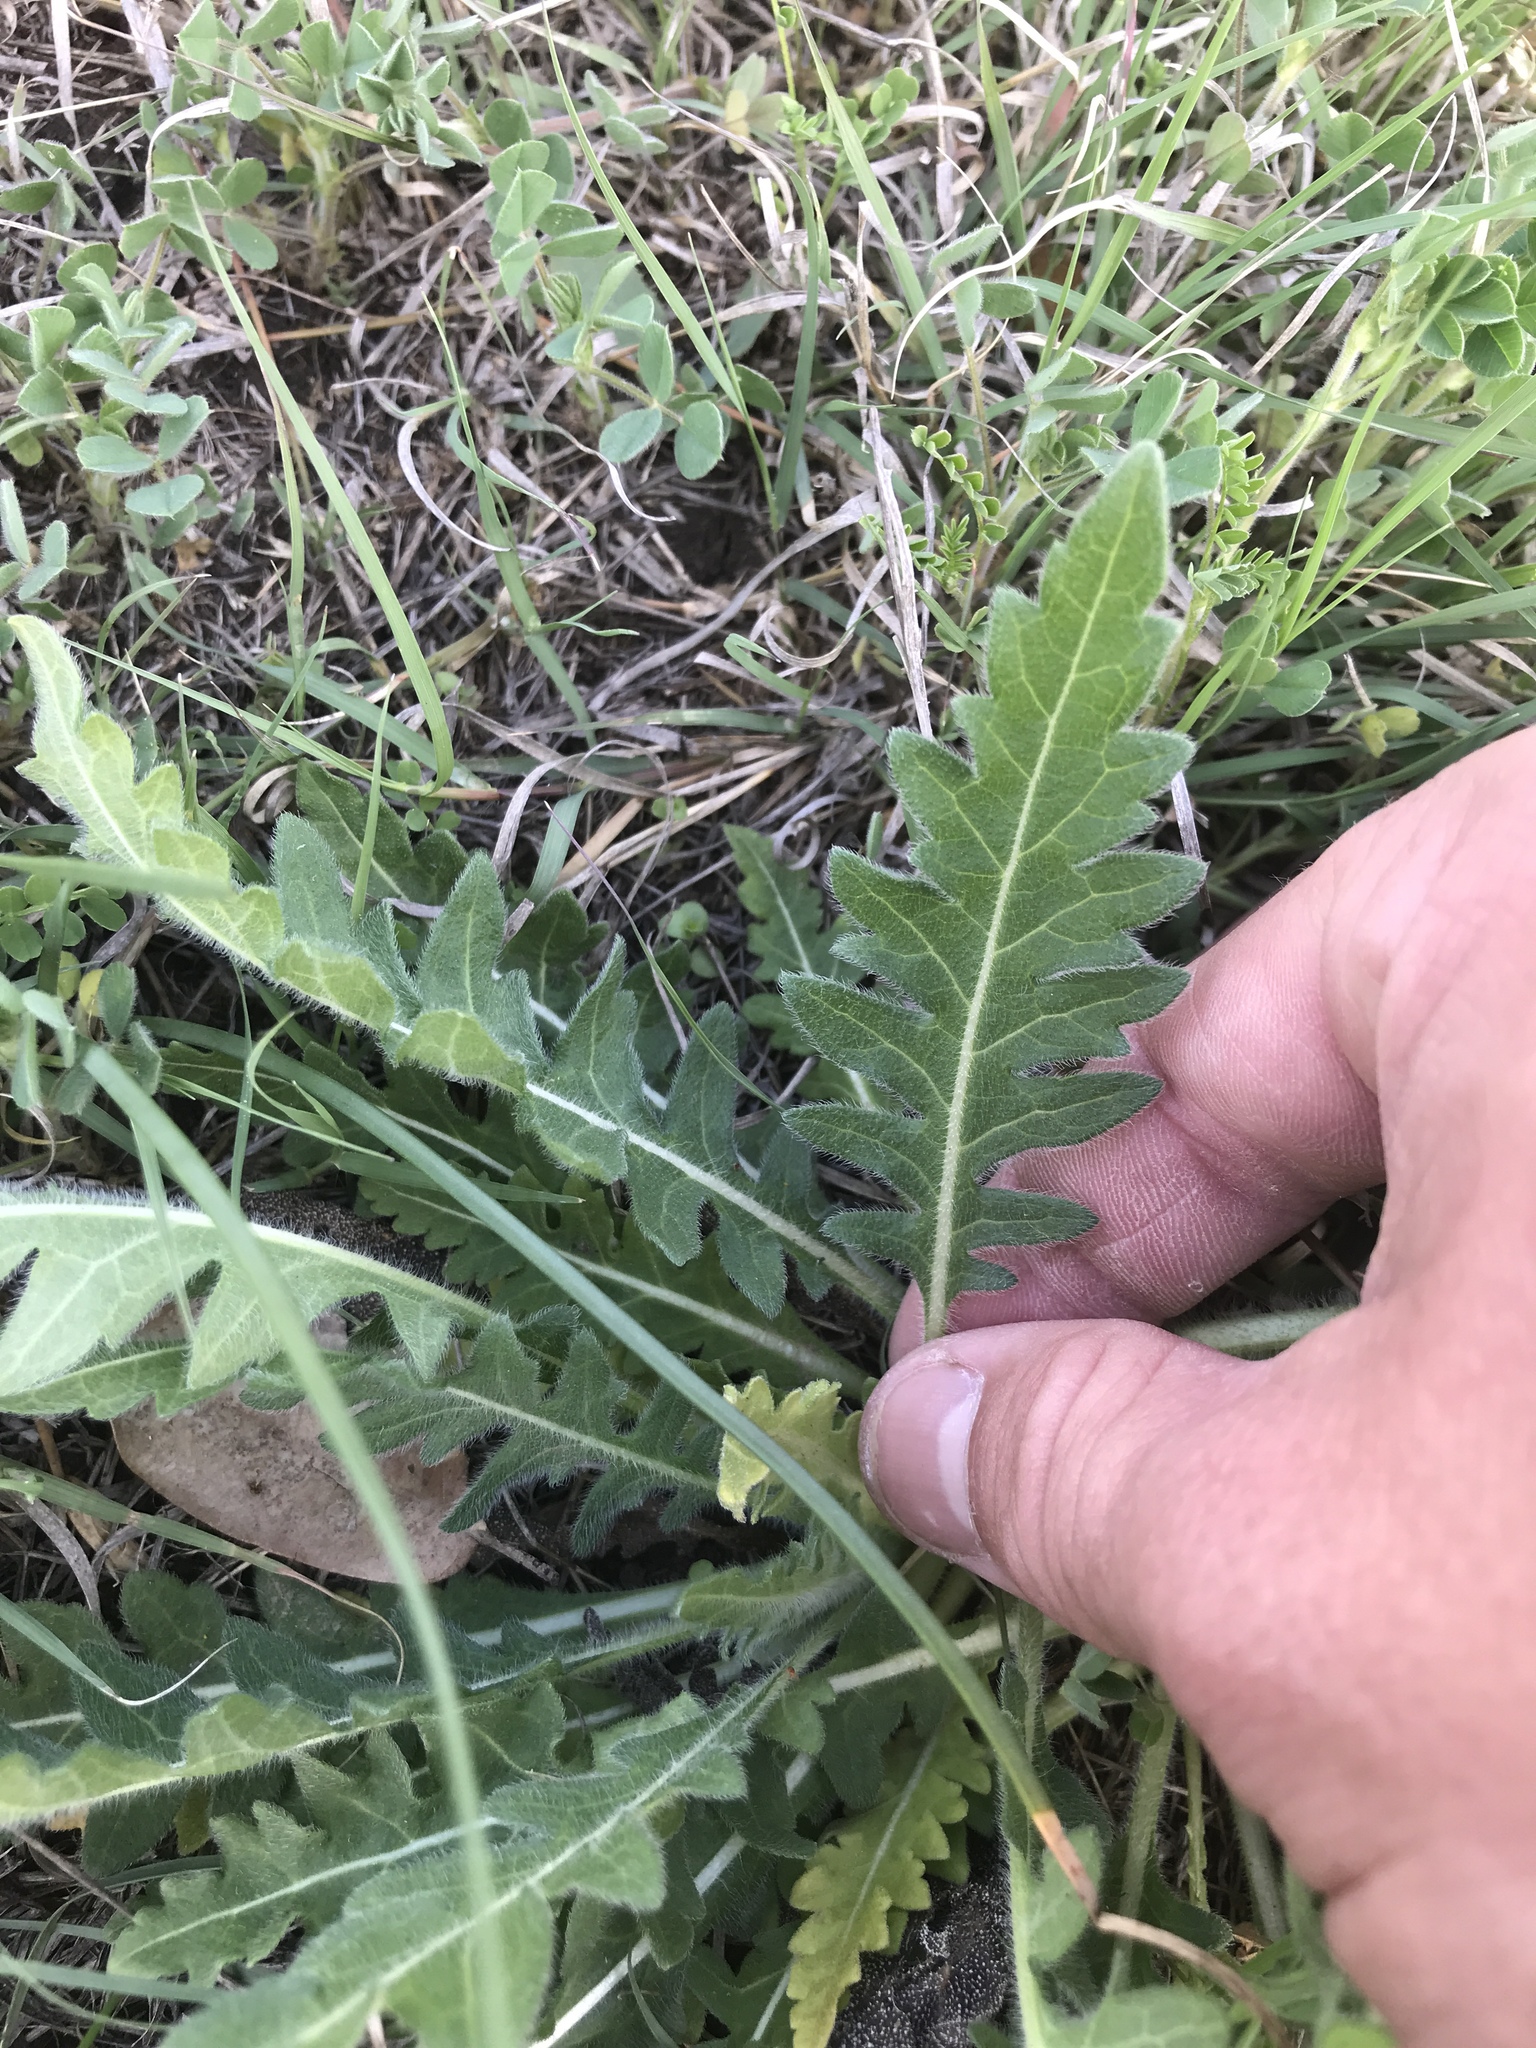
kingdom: Plantae
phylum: Tracheophyta
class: Magnoliopsida
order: Asterales
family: Asteraceae
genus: Engelmannia
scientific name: Engelmannia peristenia
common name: Engelmann's daisy
